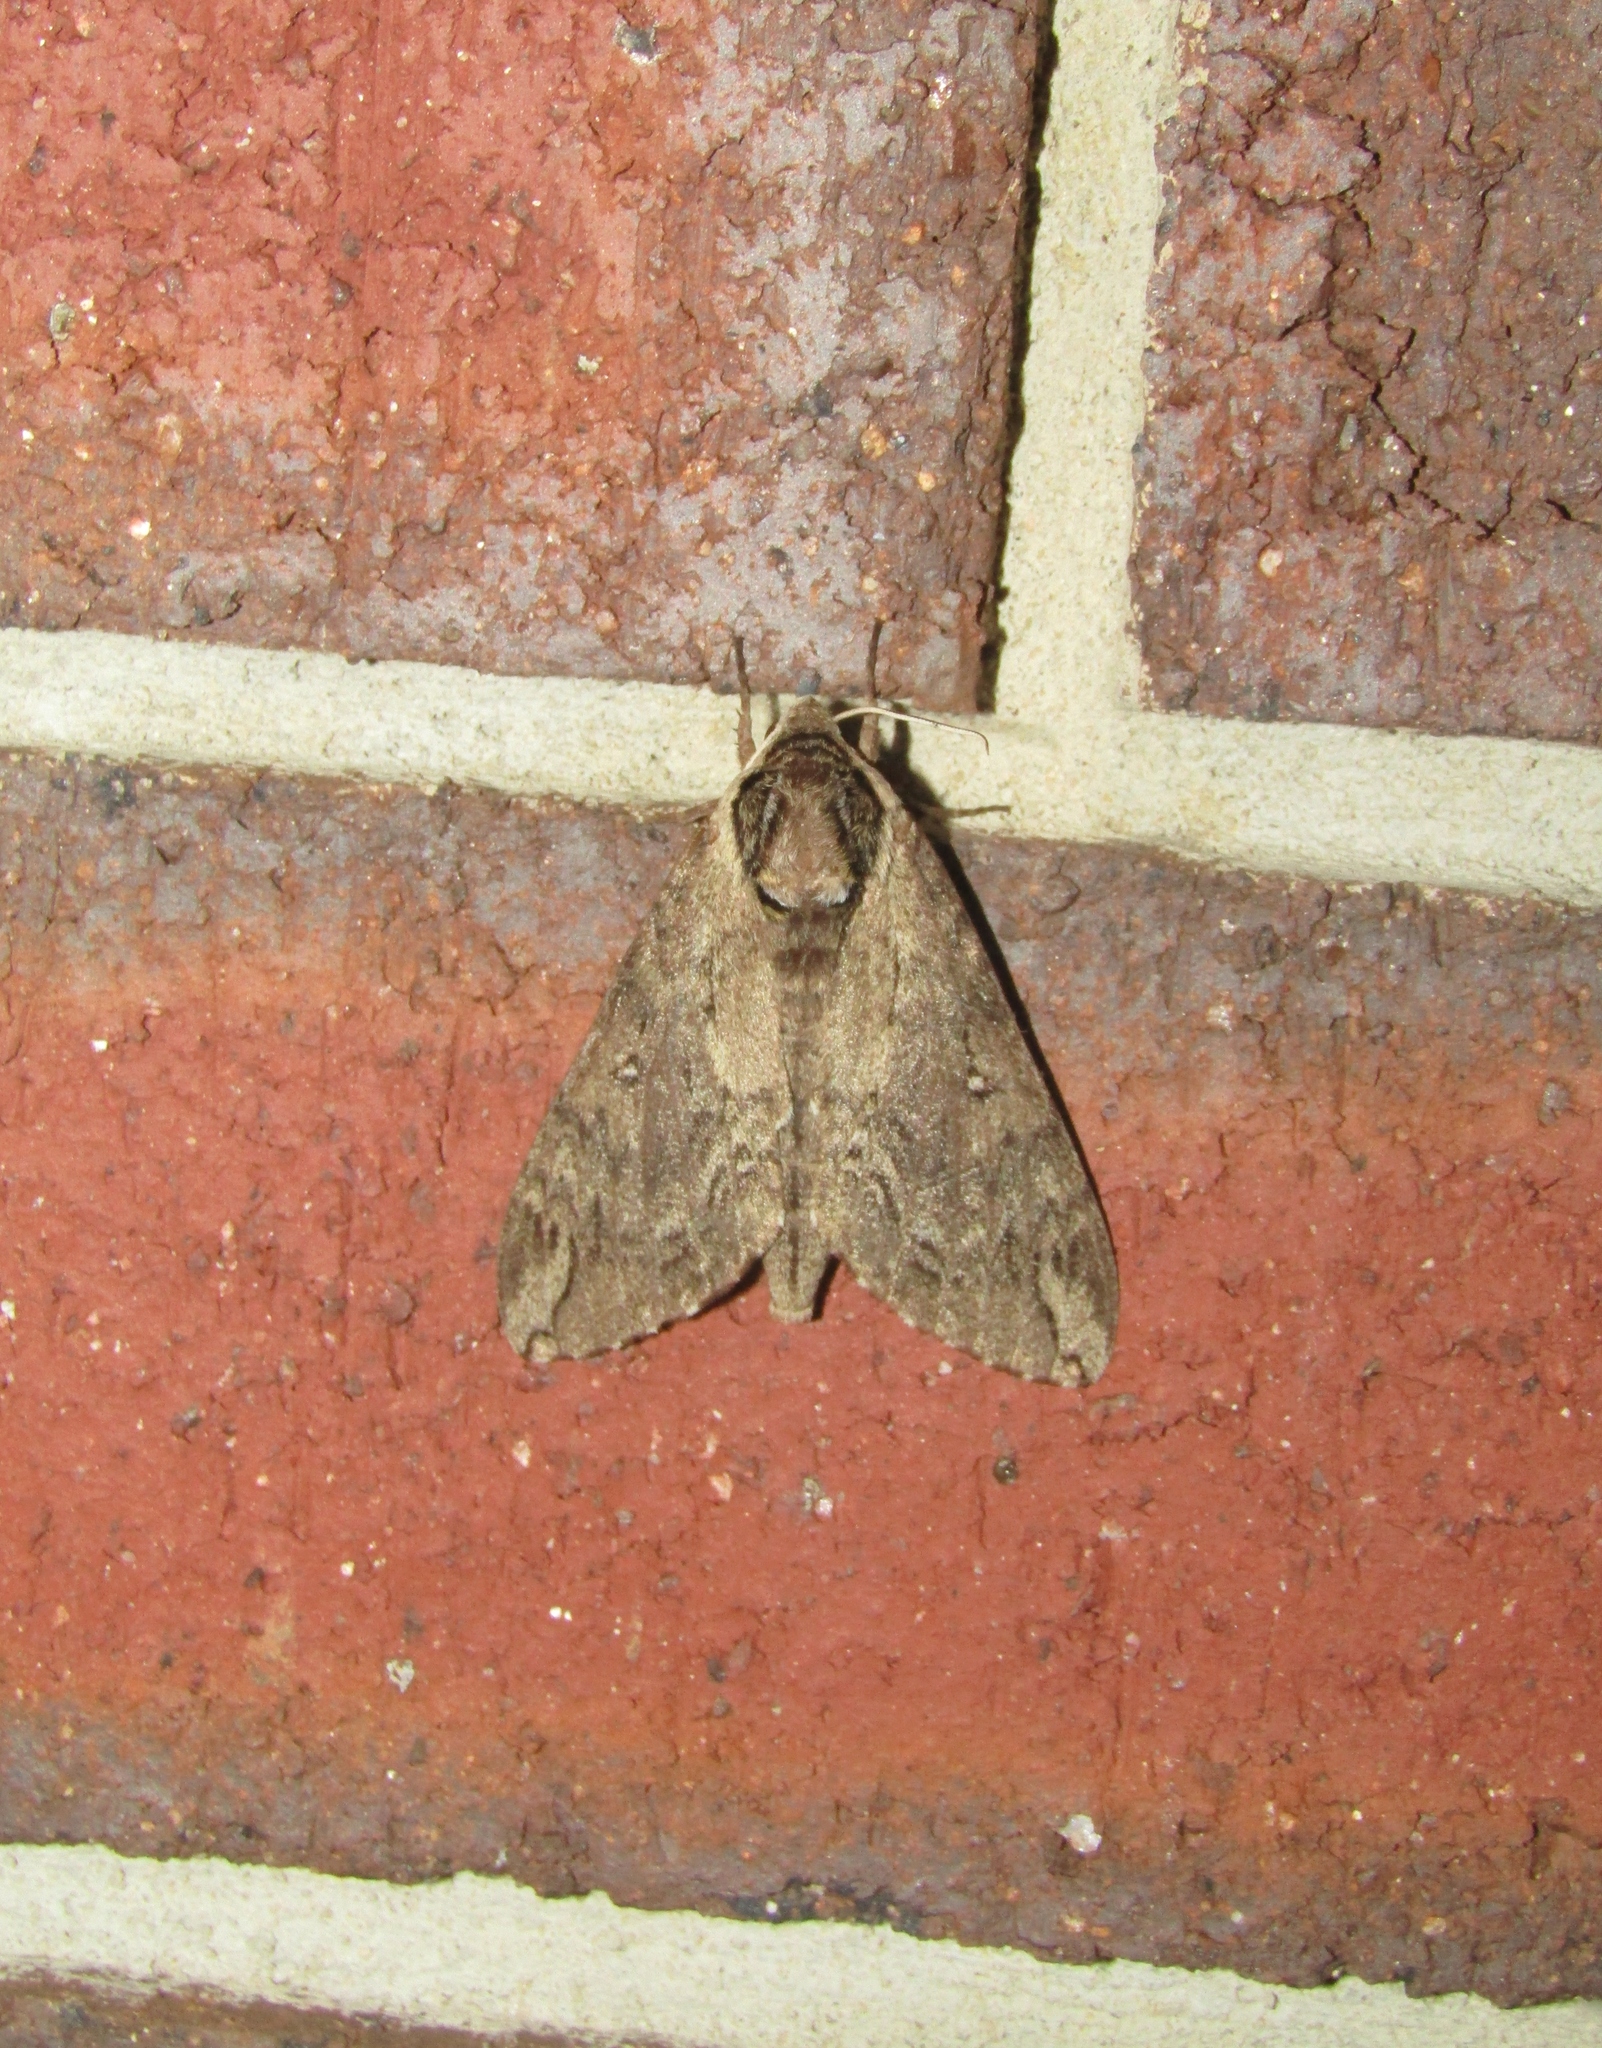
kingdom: Animalia
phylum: Arthropoda
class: Insecta
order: Lepidoptera
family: Sphingidae
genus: Ceratomia
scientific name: Ceratomia catalpae
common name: Catalpa hornworm
